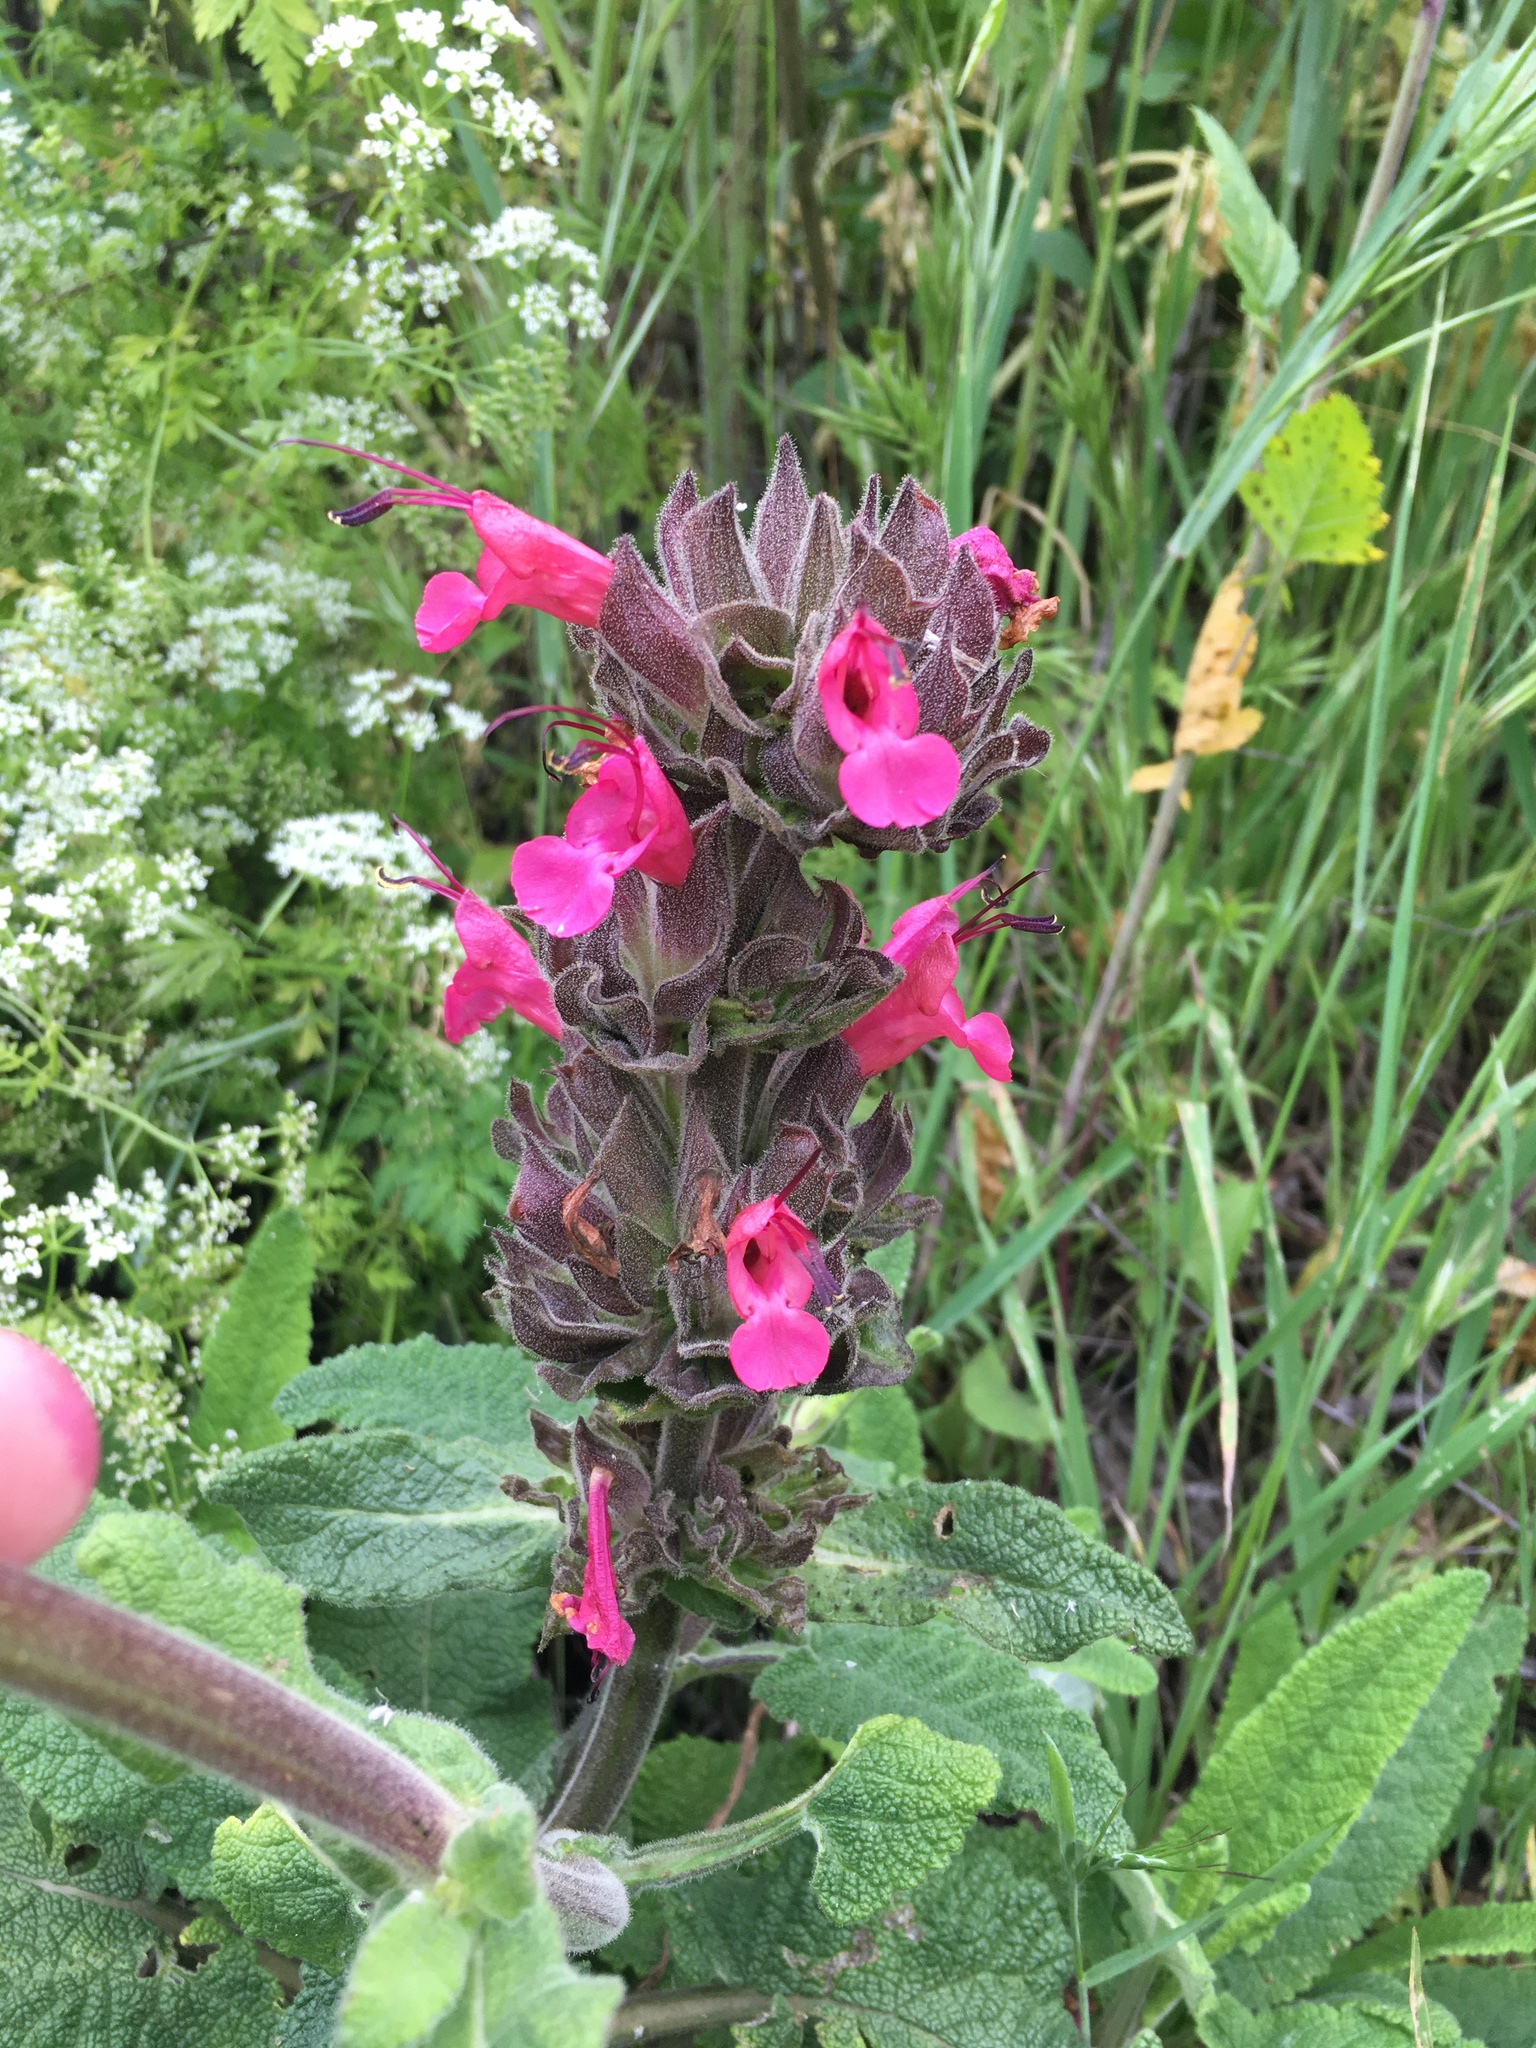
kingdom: Plantae
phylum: Tracheophyta
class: Magnoliopsida
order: Lamiales
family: Lamiaceae
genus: Salvia
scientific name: Salvia spathacea
